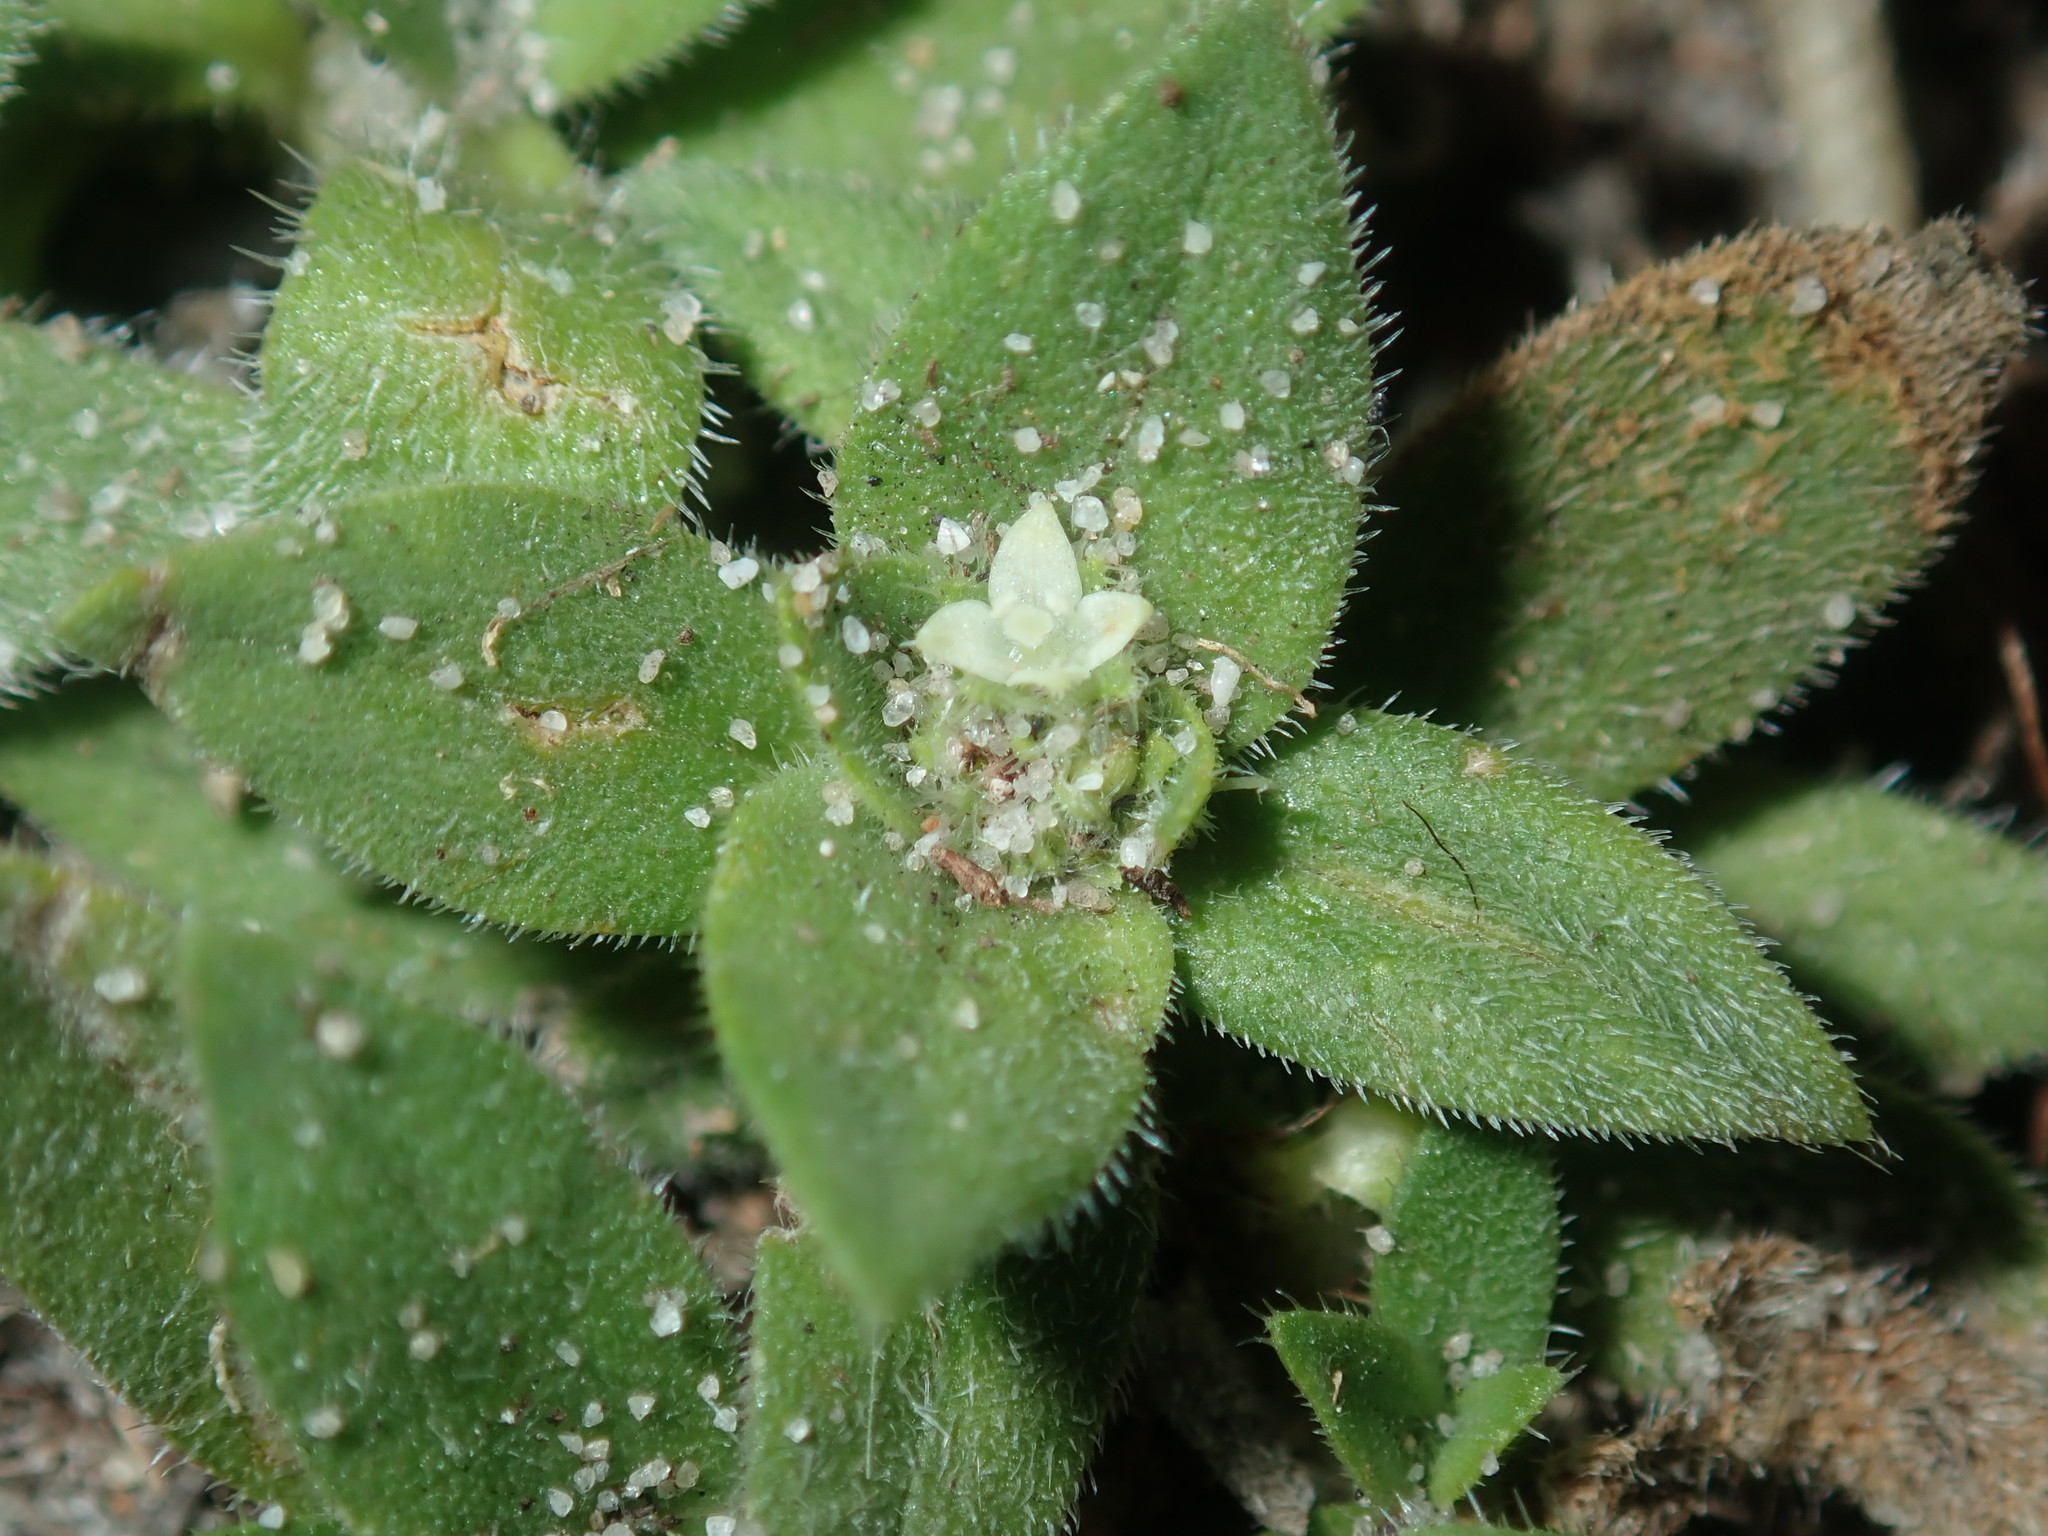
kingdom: Plantae
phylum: Tracheophyta
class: Magnoliopsida
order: Gentianales
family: Rubiaceae
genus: Richardia
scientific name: Richardia humistrata
